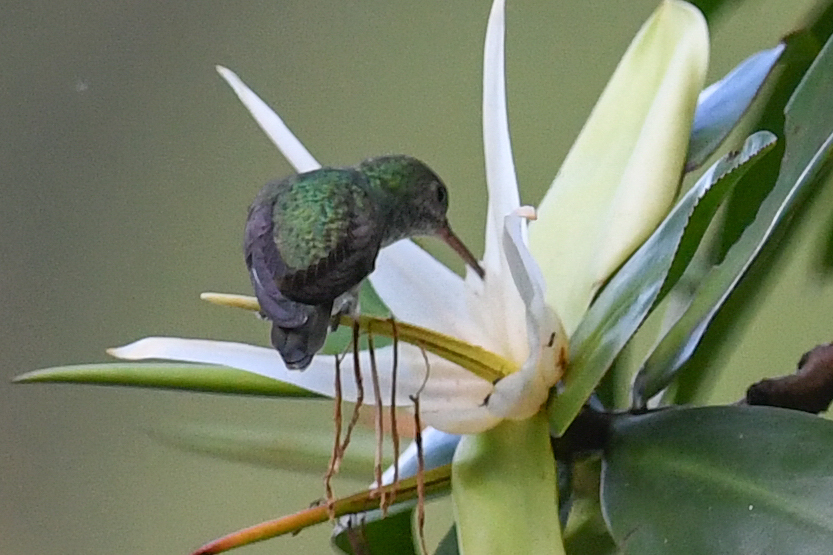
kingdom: Animalia
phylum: Chordata
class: Aves
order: Apodiformes
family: Trochilidae
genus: Amazilia
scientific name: Amazilia boucardi
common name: Mangrove hummingbird
